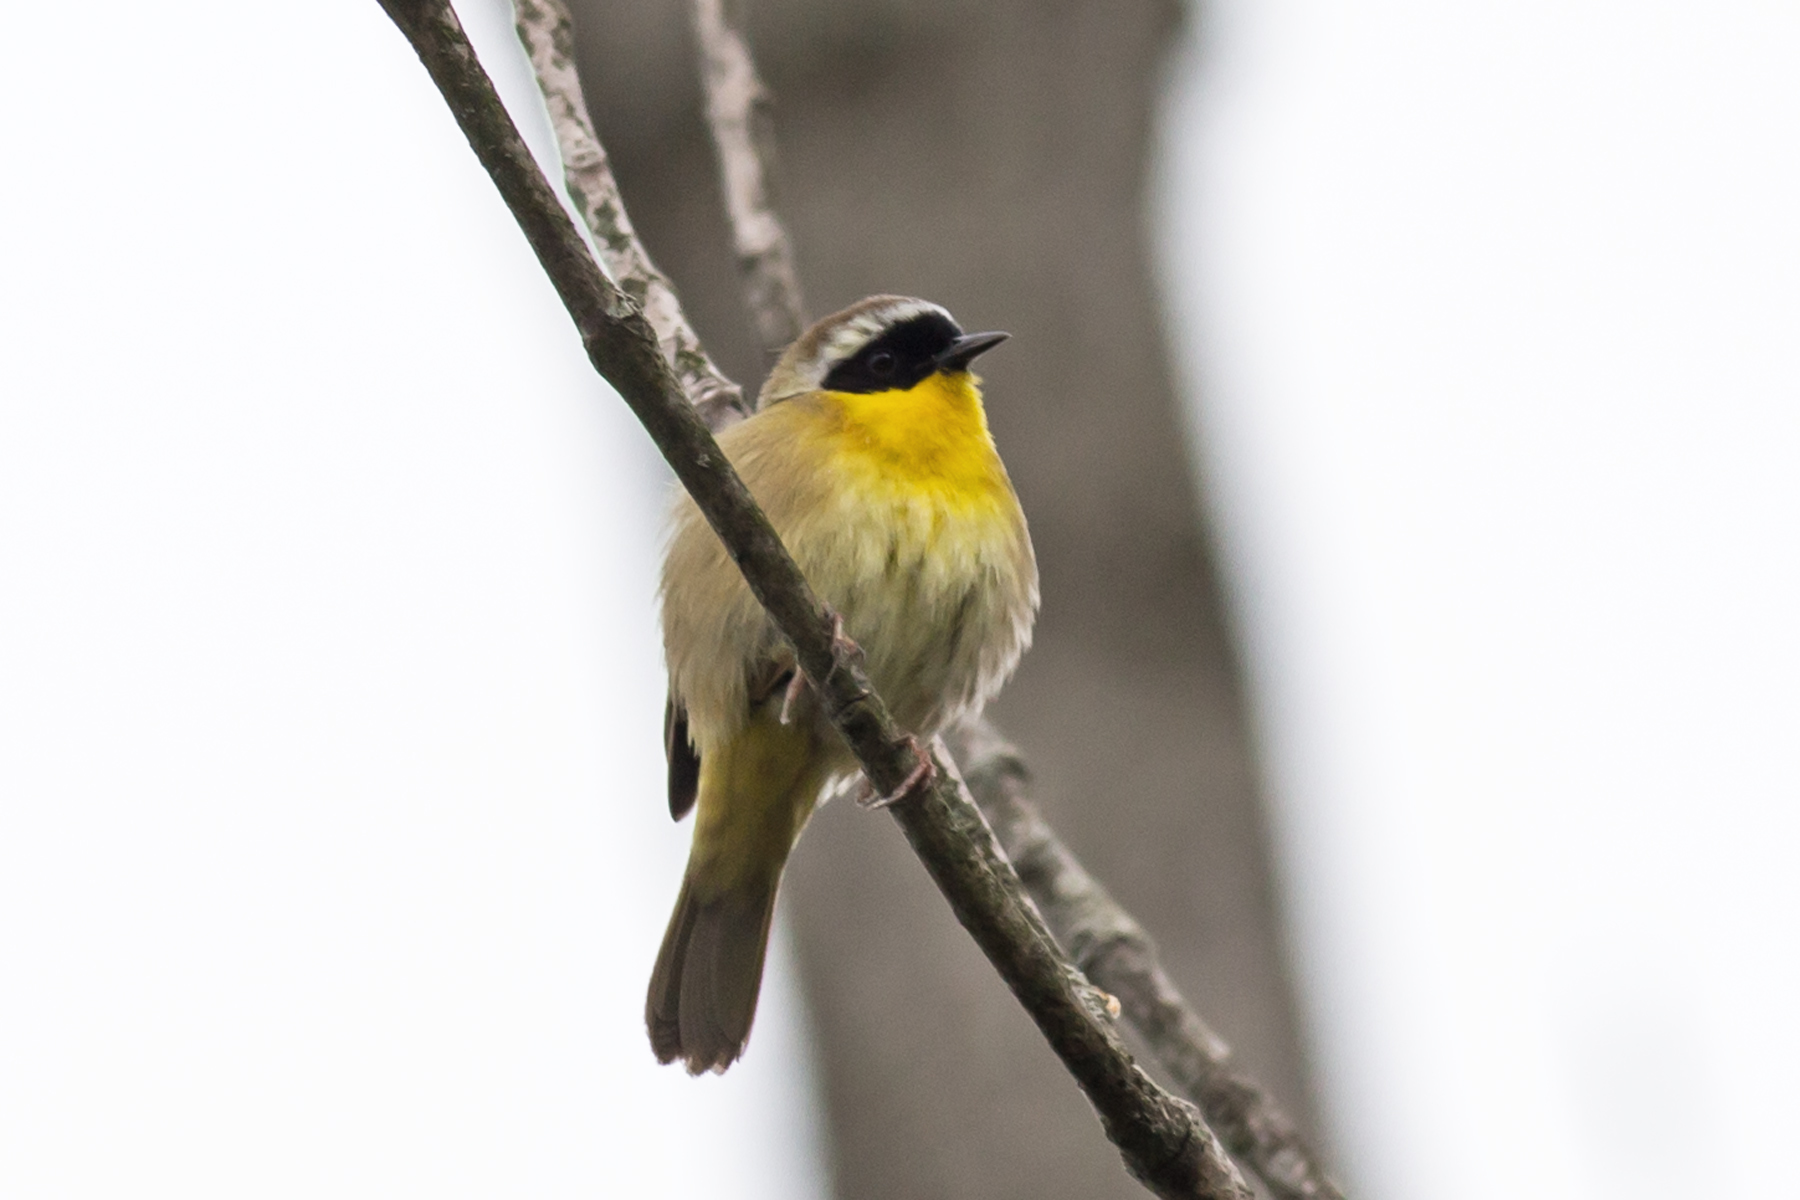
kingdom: Animalia
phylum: Chordata
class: Aves
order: Passeriformes
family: Parulidae
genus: Geothlypis
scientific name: Geothlypis trichas
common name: Common yellowthroat
